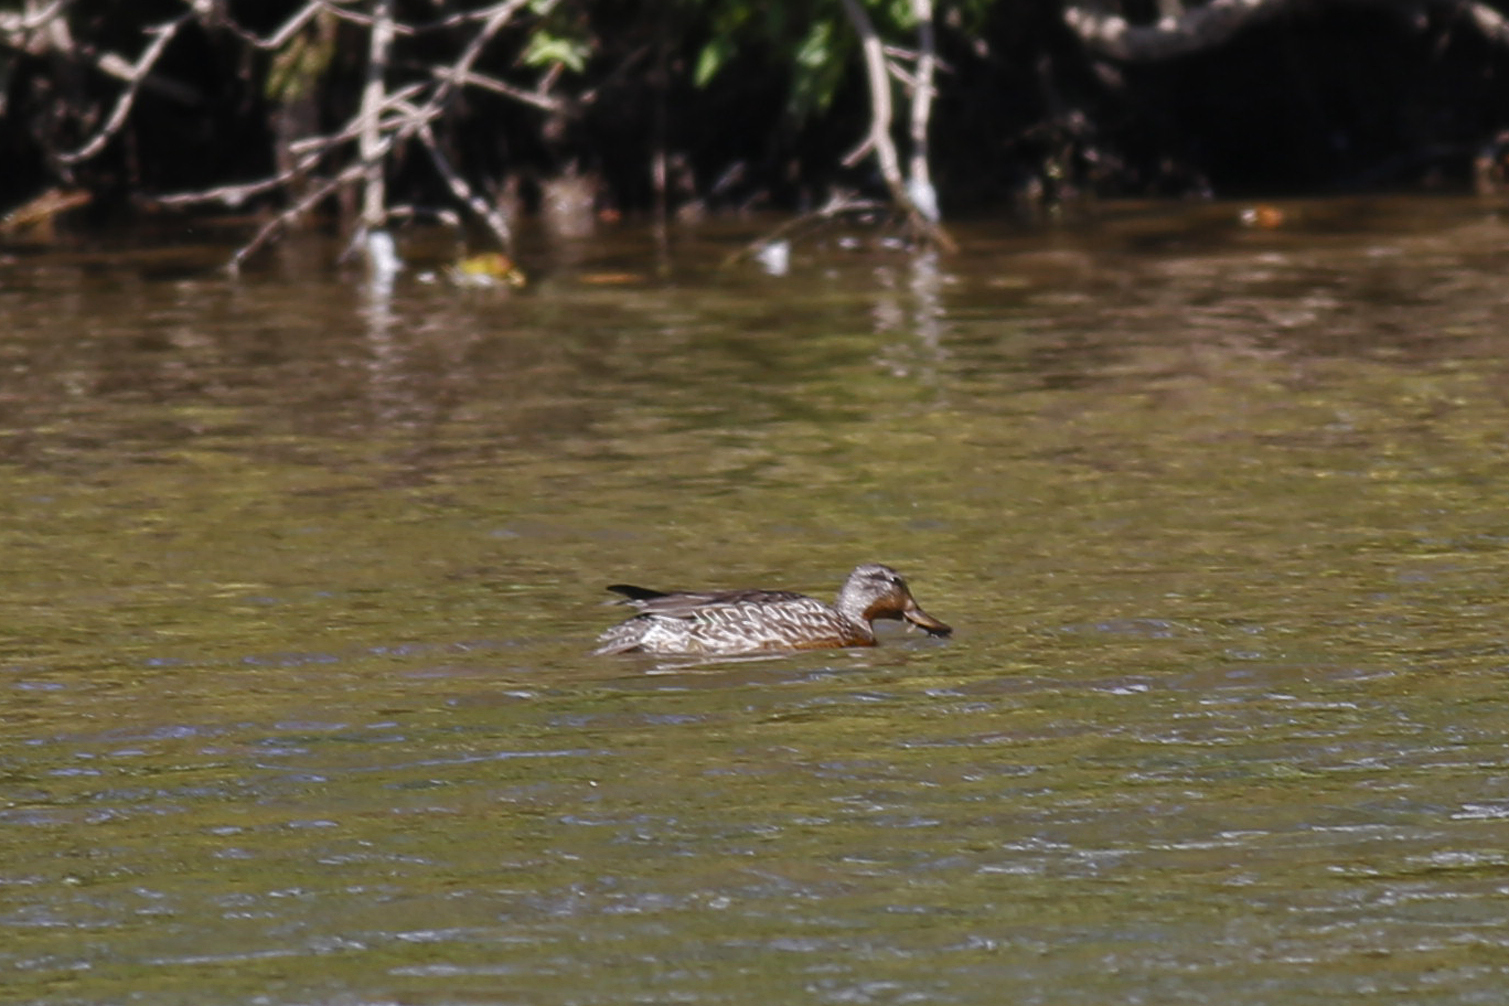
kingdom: Animalia
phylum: Chordata
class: Aves
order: Anseriformes
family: Anatidae
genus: Anas
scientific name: Anas crecca
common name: Eurasian teal
